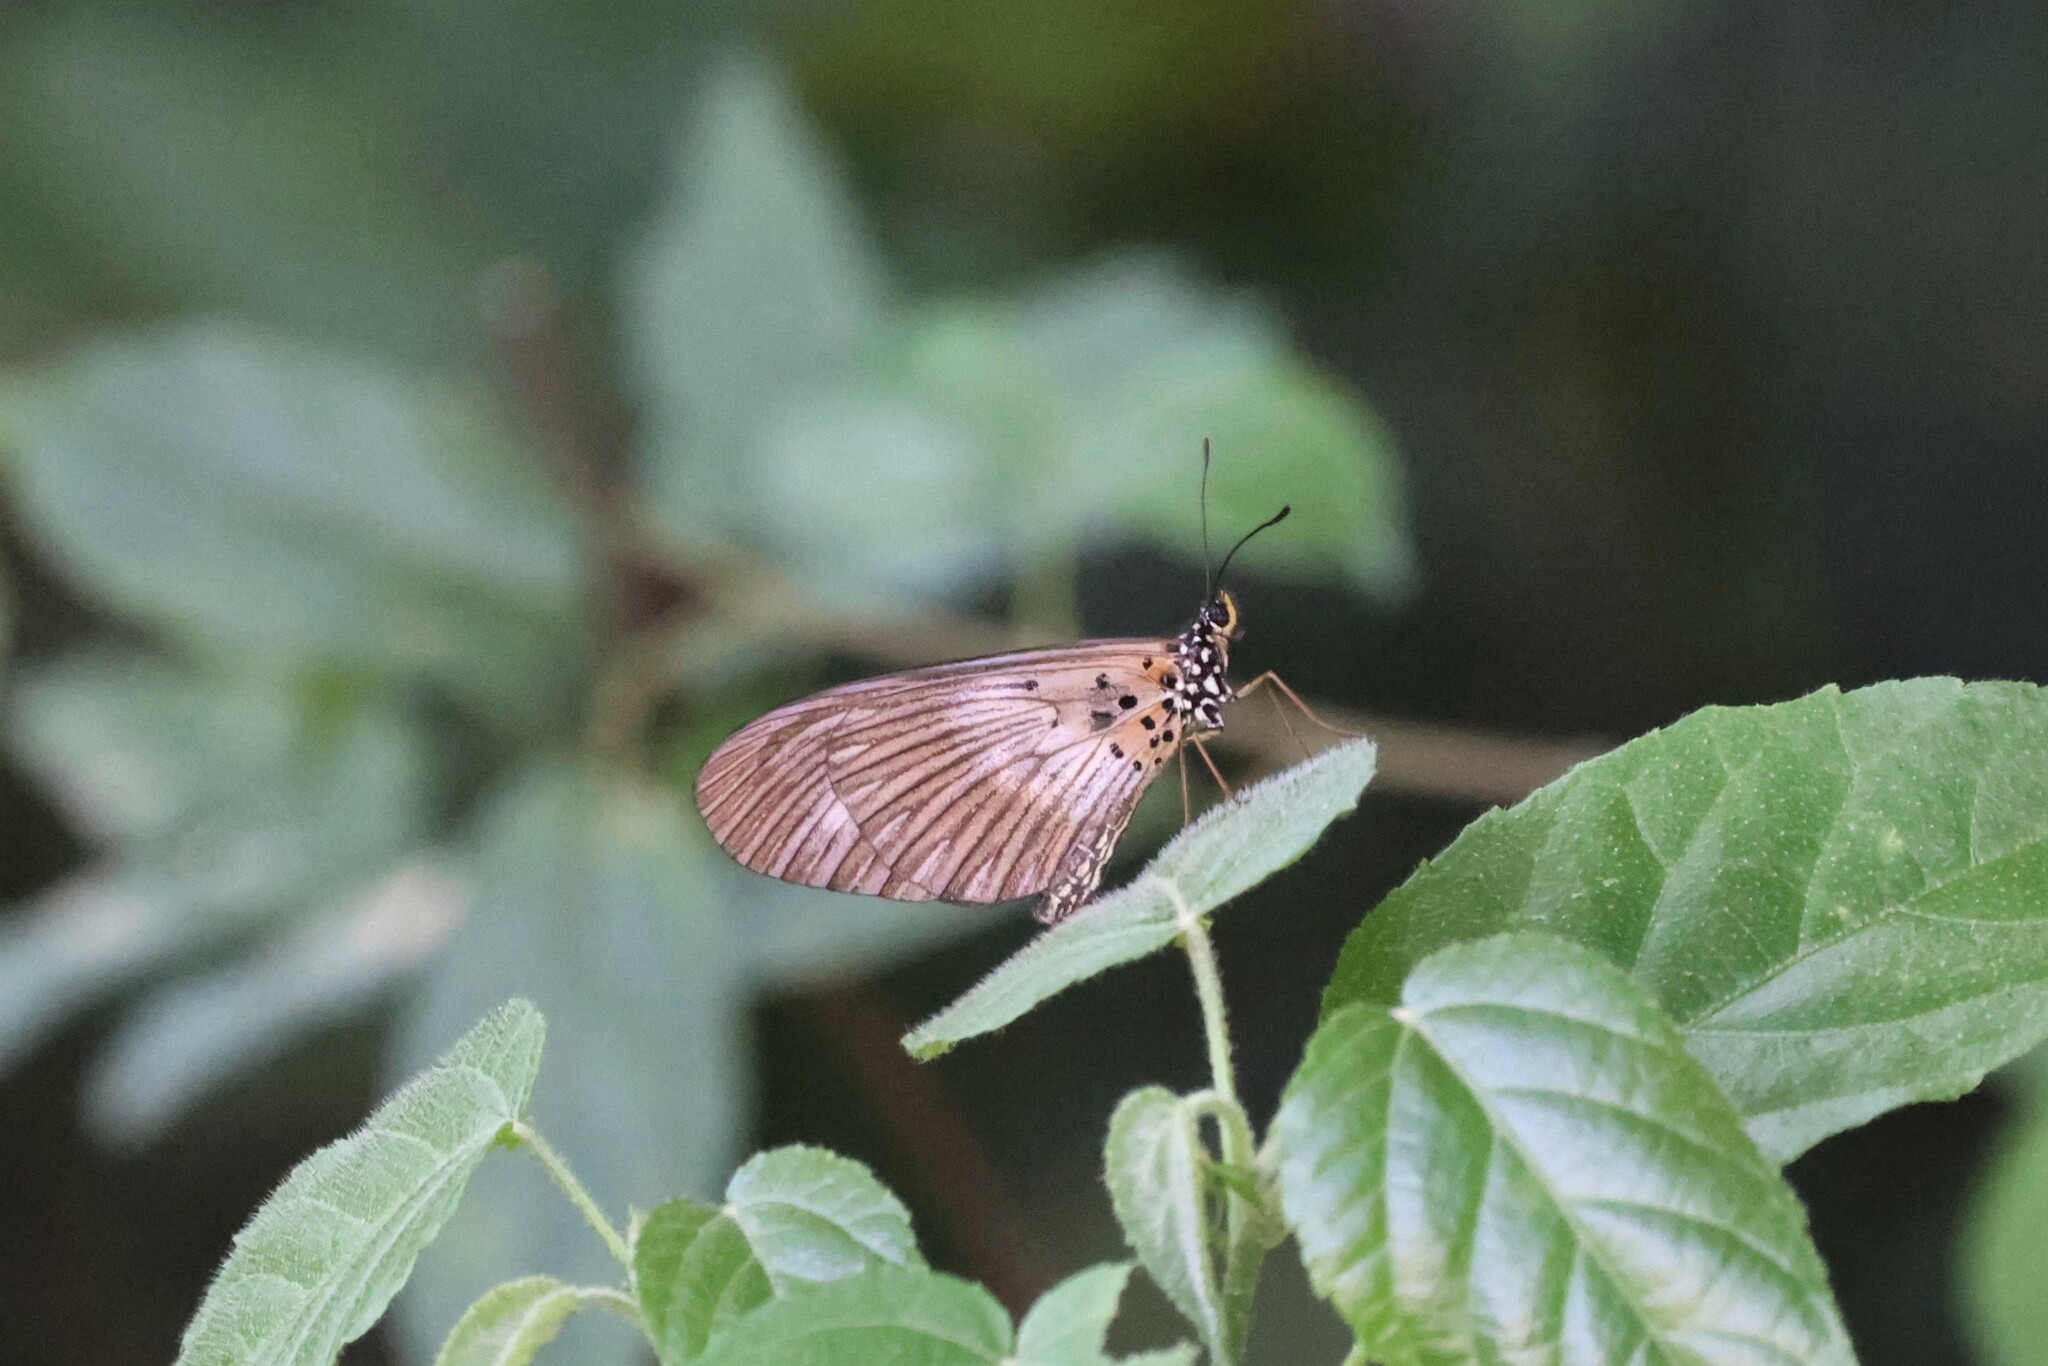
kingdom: Animalia
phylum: Arthropoda
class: Insecta
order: Lepidoptera
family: Nymphalidae
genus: Acraea
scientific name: Acraea
